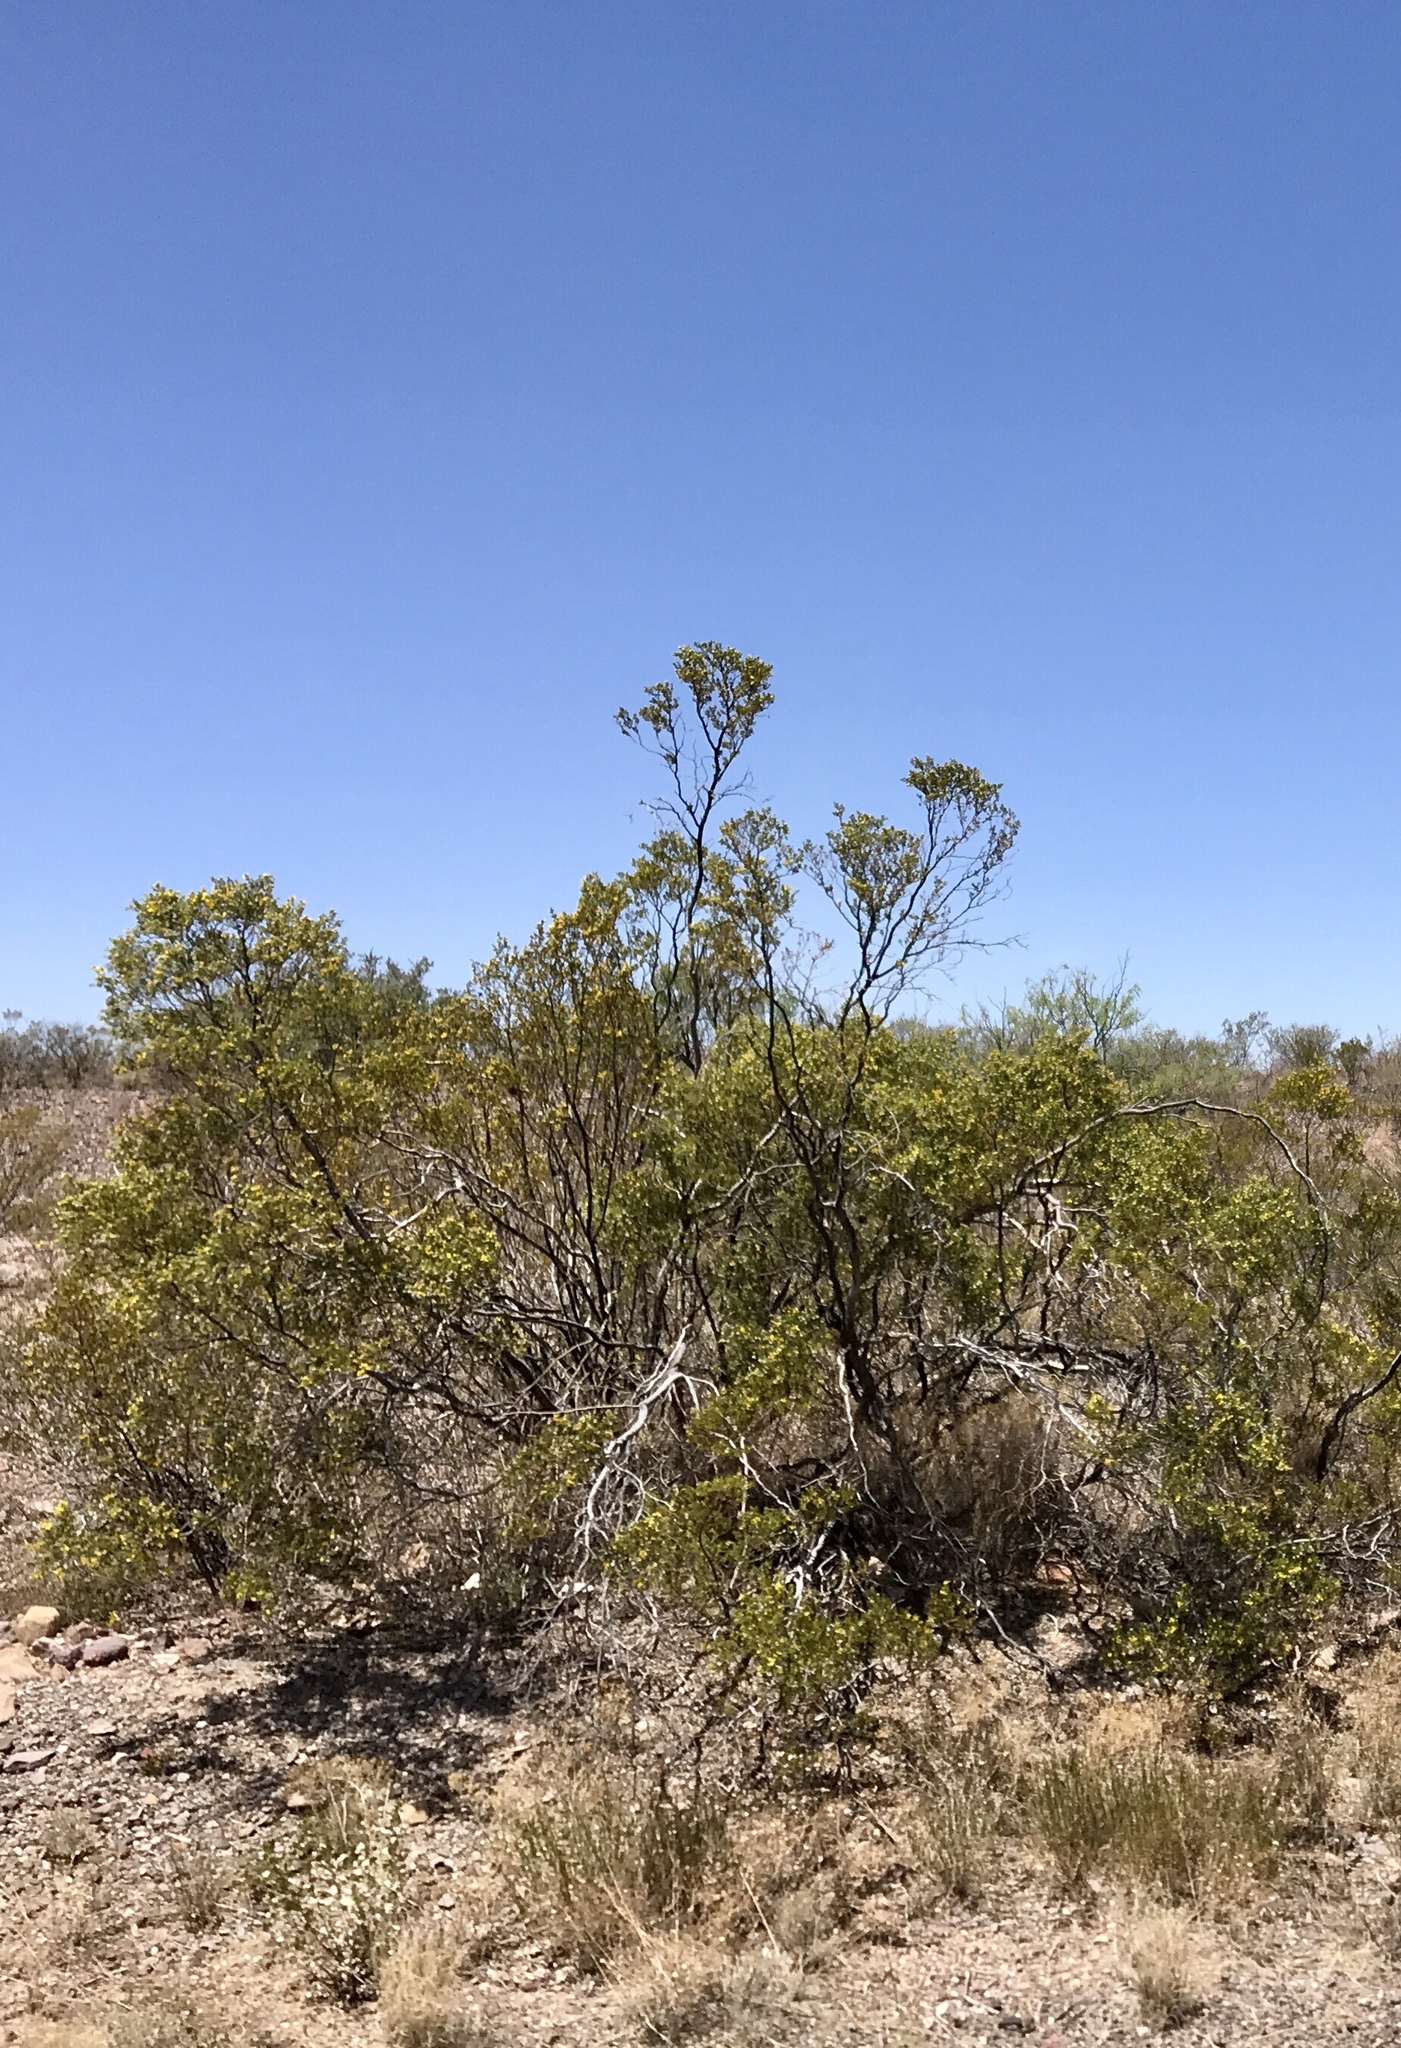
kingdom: Plantae
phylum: Tracheophyta
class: Magnoliopsida
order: Zygophyllales
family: Zygophyllaceae
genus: Larrea
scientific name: Larrea tridentata
